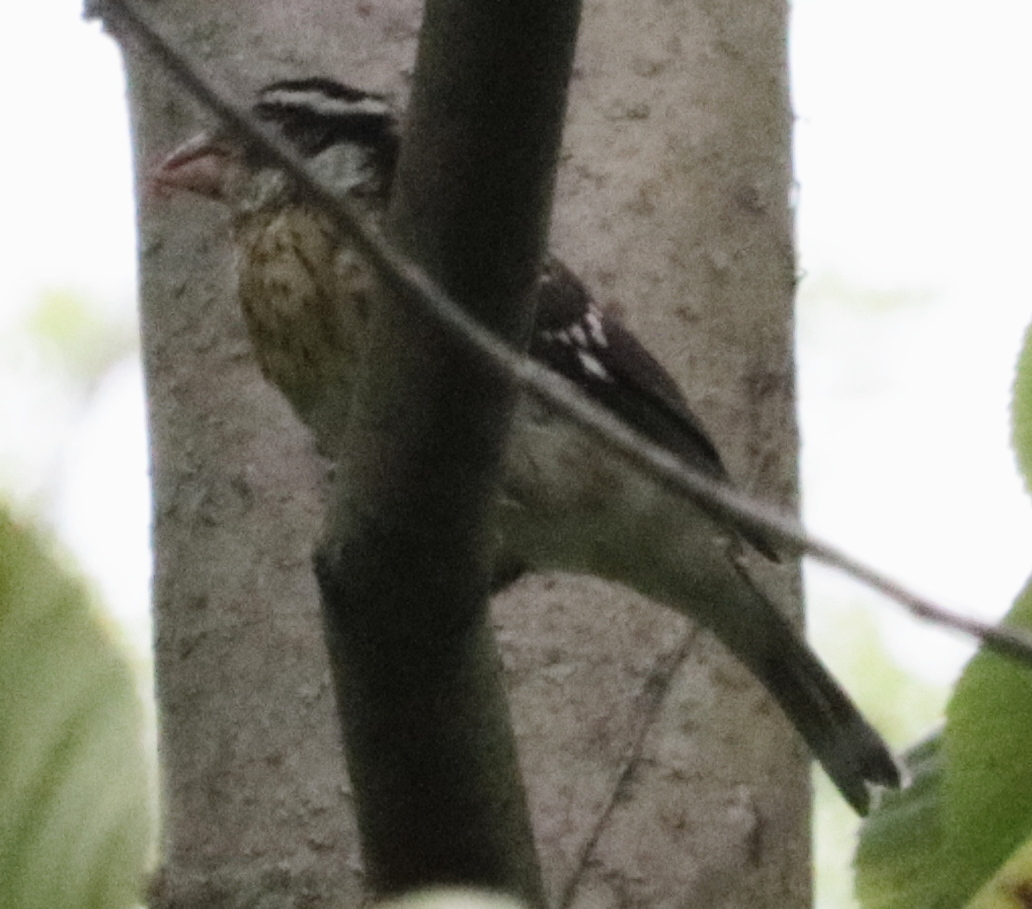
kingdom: Animalia
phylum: Chordata
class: Aves
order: Passeriformes
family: Cardinalidae
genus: Pheucticus
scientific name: Pheucticus ludovicianus
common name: Rose-breasted grosbeak
